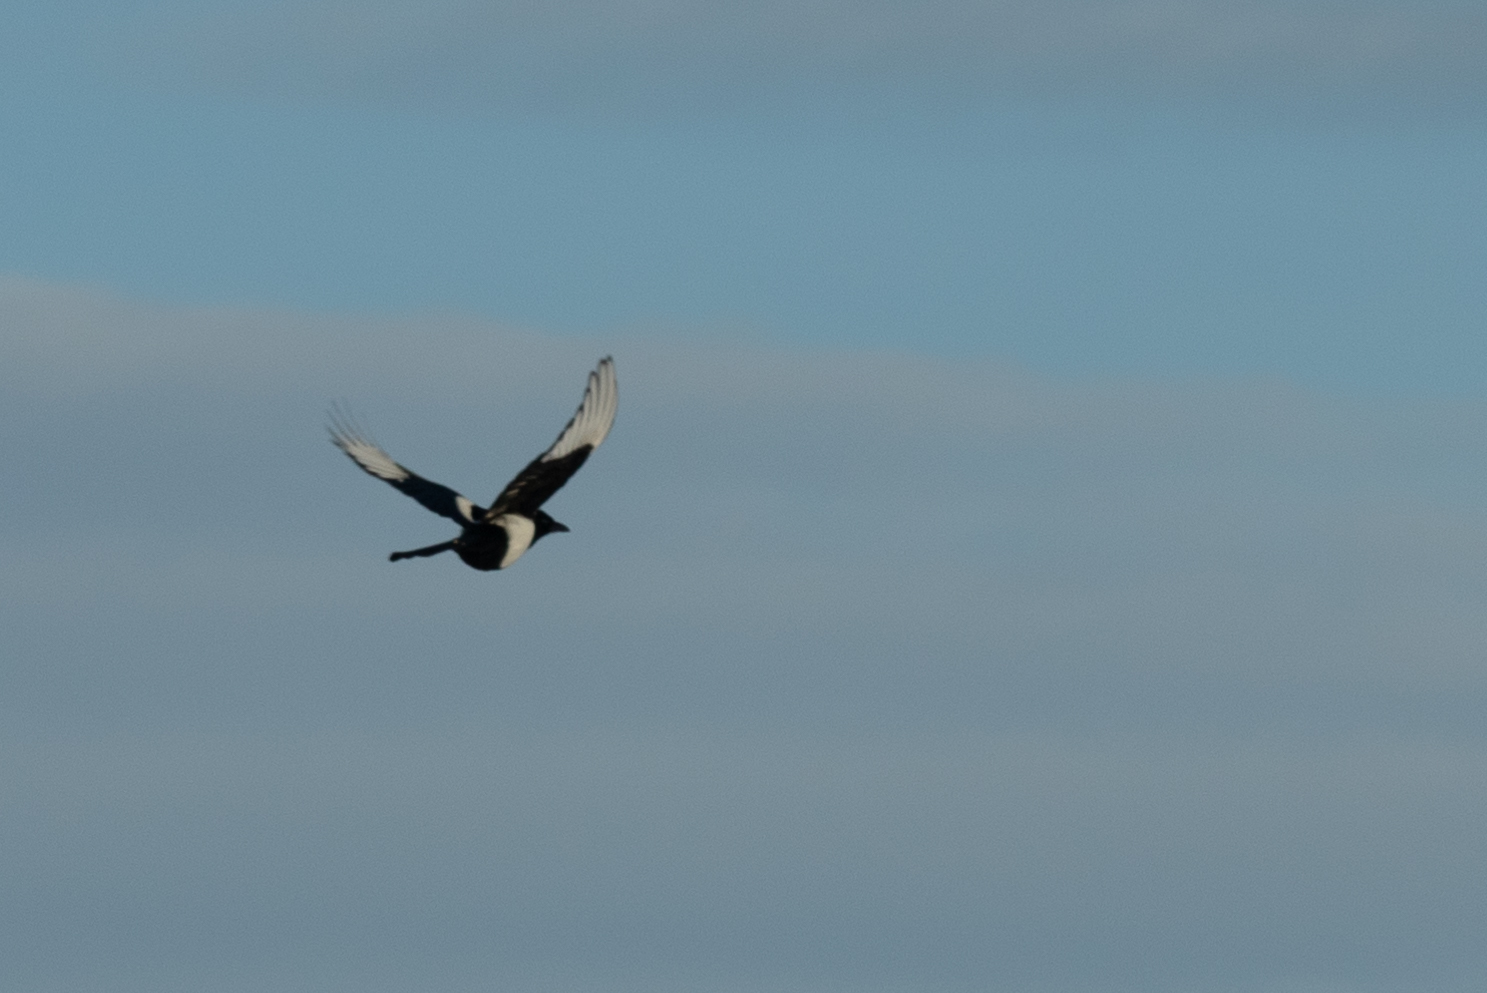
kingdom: Animalia
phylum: Chordata
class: Aves
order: Passeriformes
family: Corvidae
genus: Pica
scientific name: Pica hudsonia
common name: Black-billed magpie
